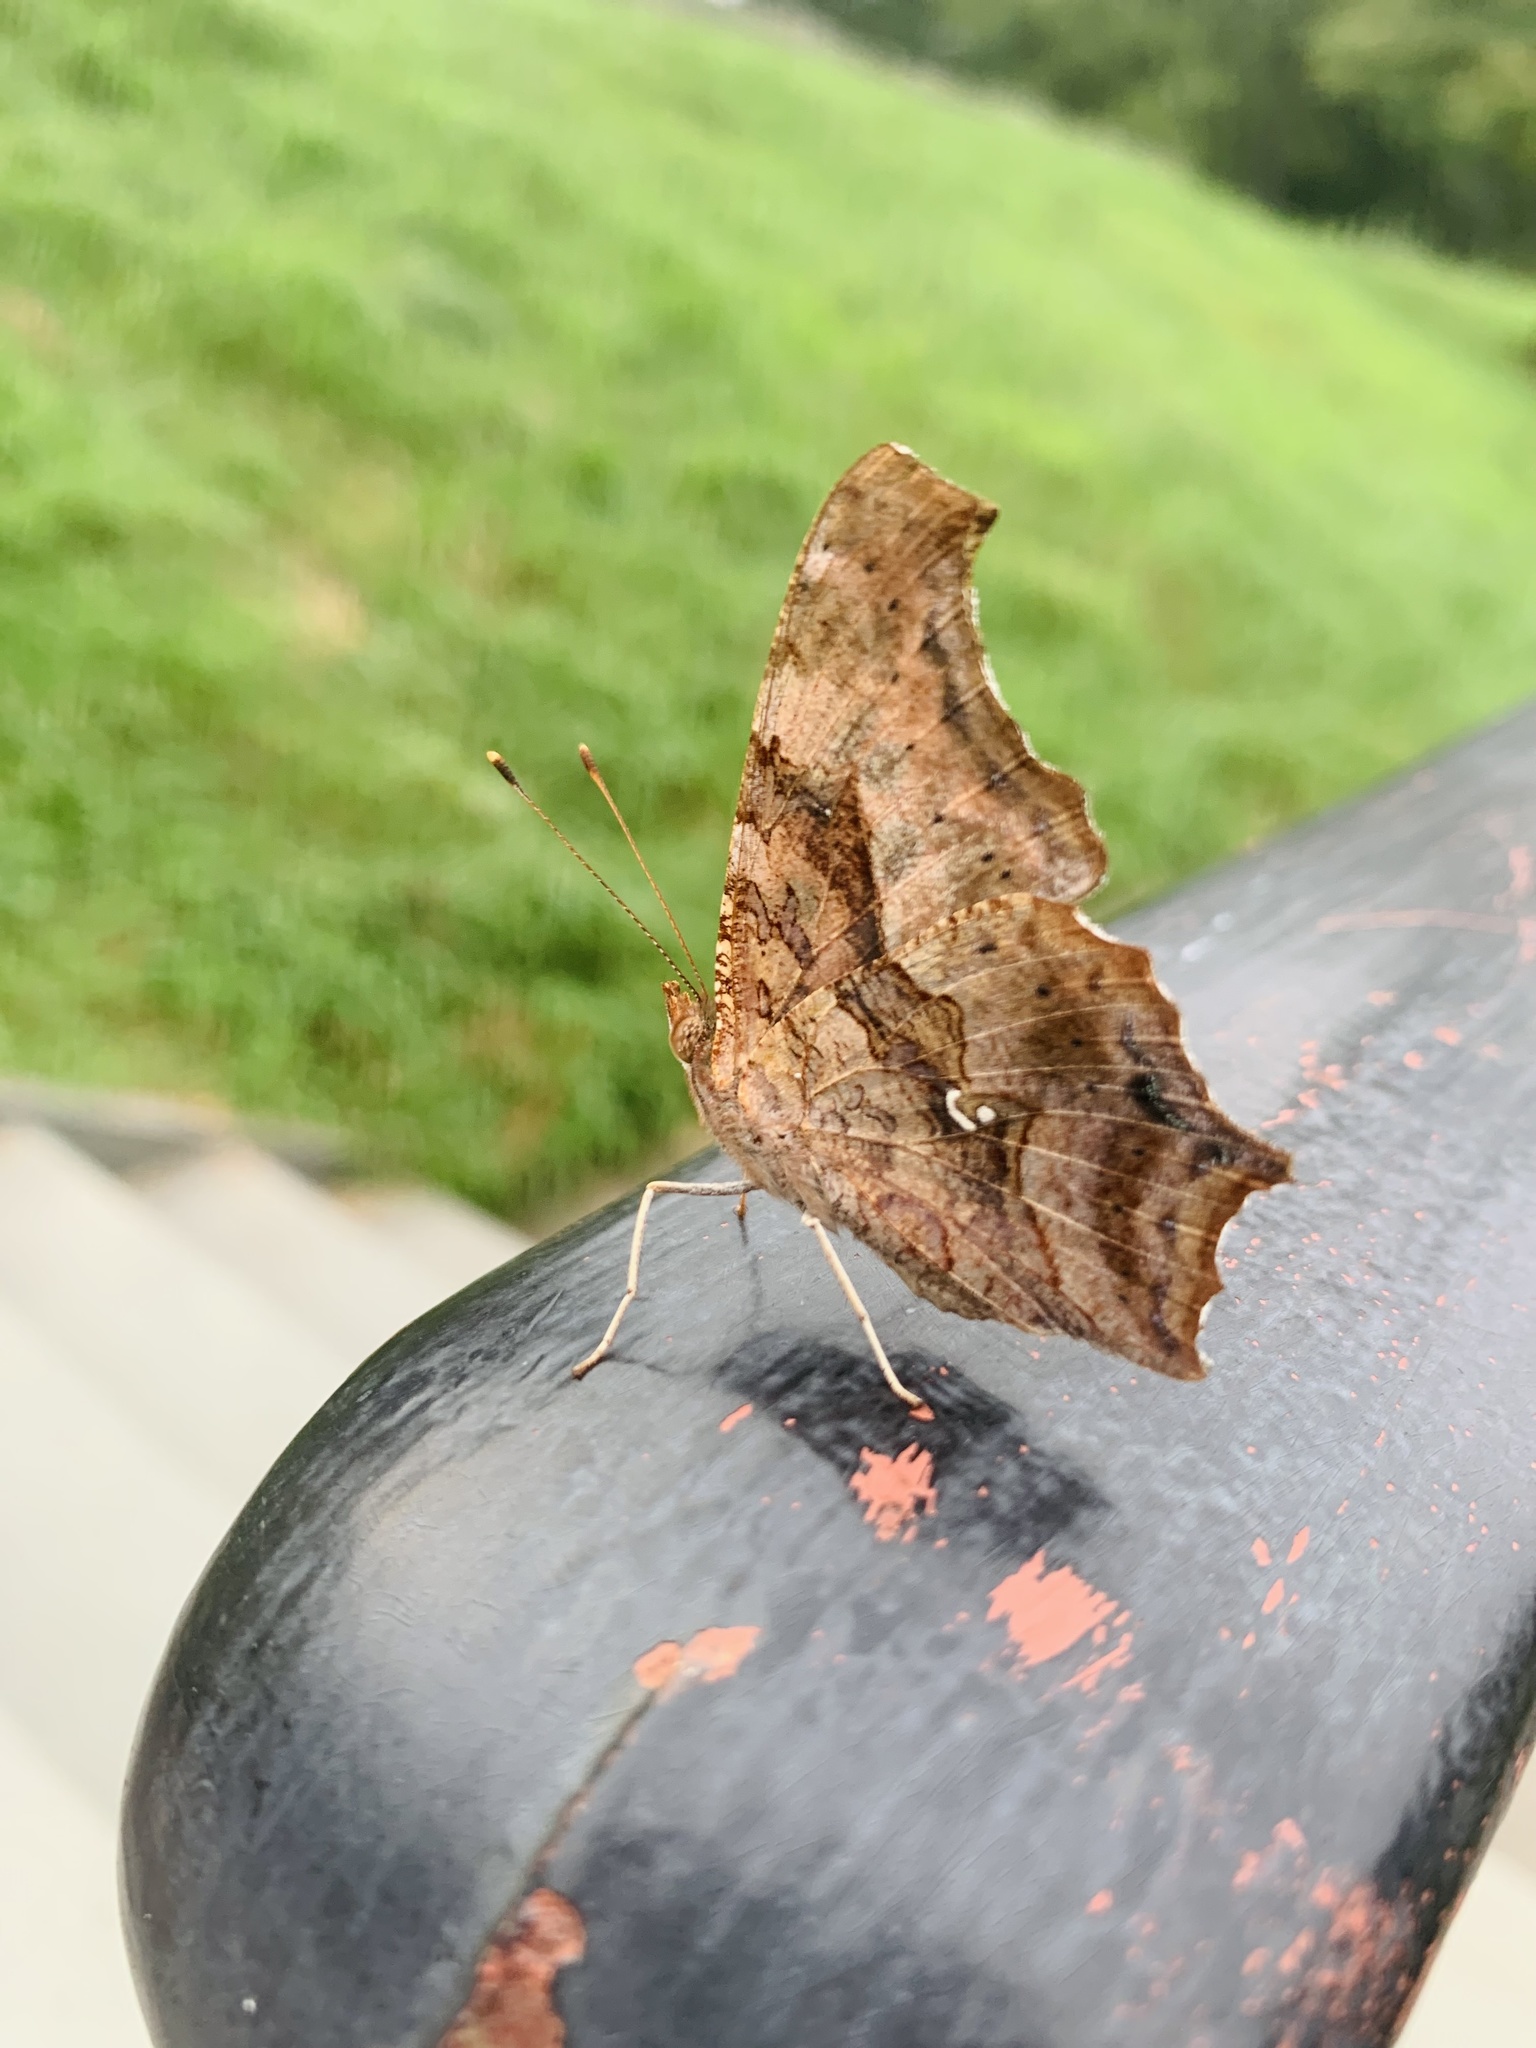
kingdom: Animalia
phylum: Arthropoda
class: Insecta
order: Lepidoptera
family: Nymphalidae
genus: Polygonia
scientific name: Polygonia interrogationis
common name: Question mark
